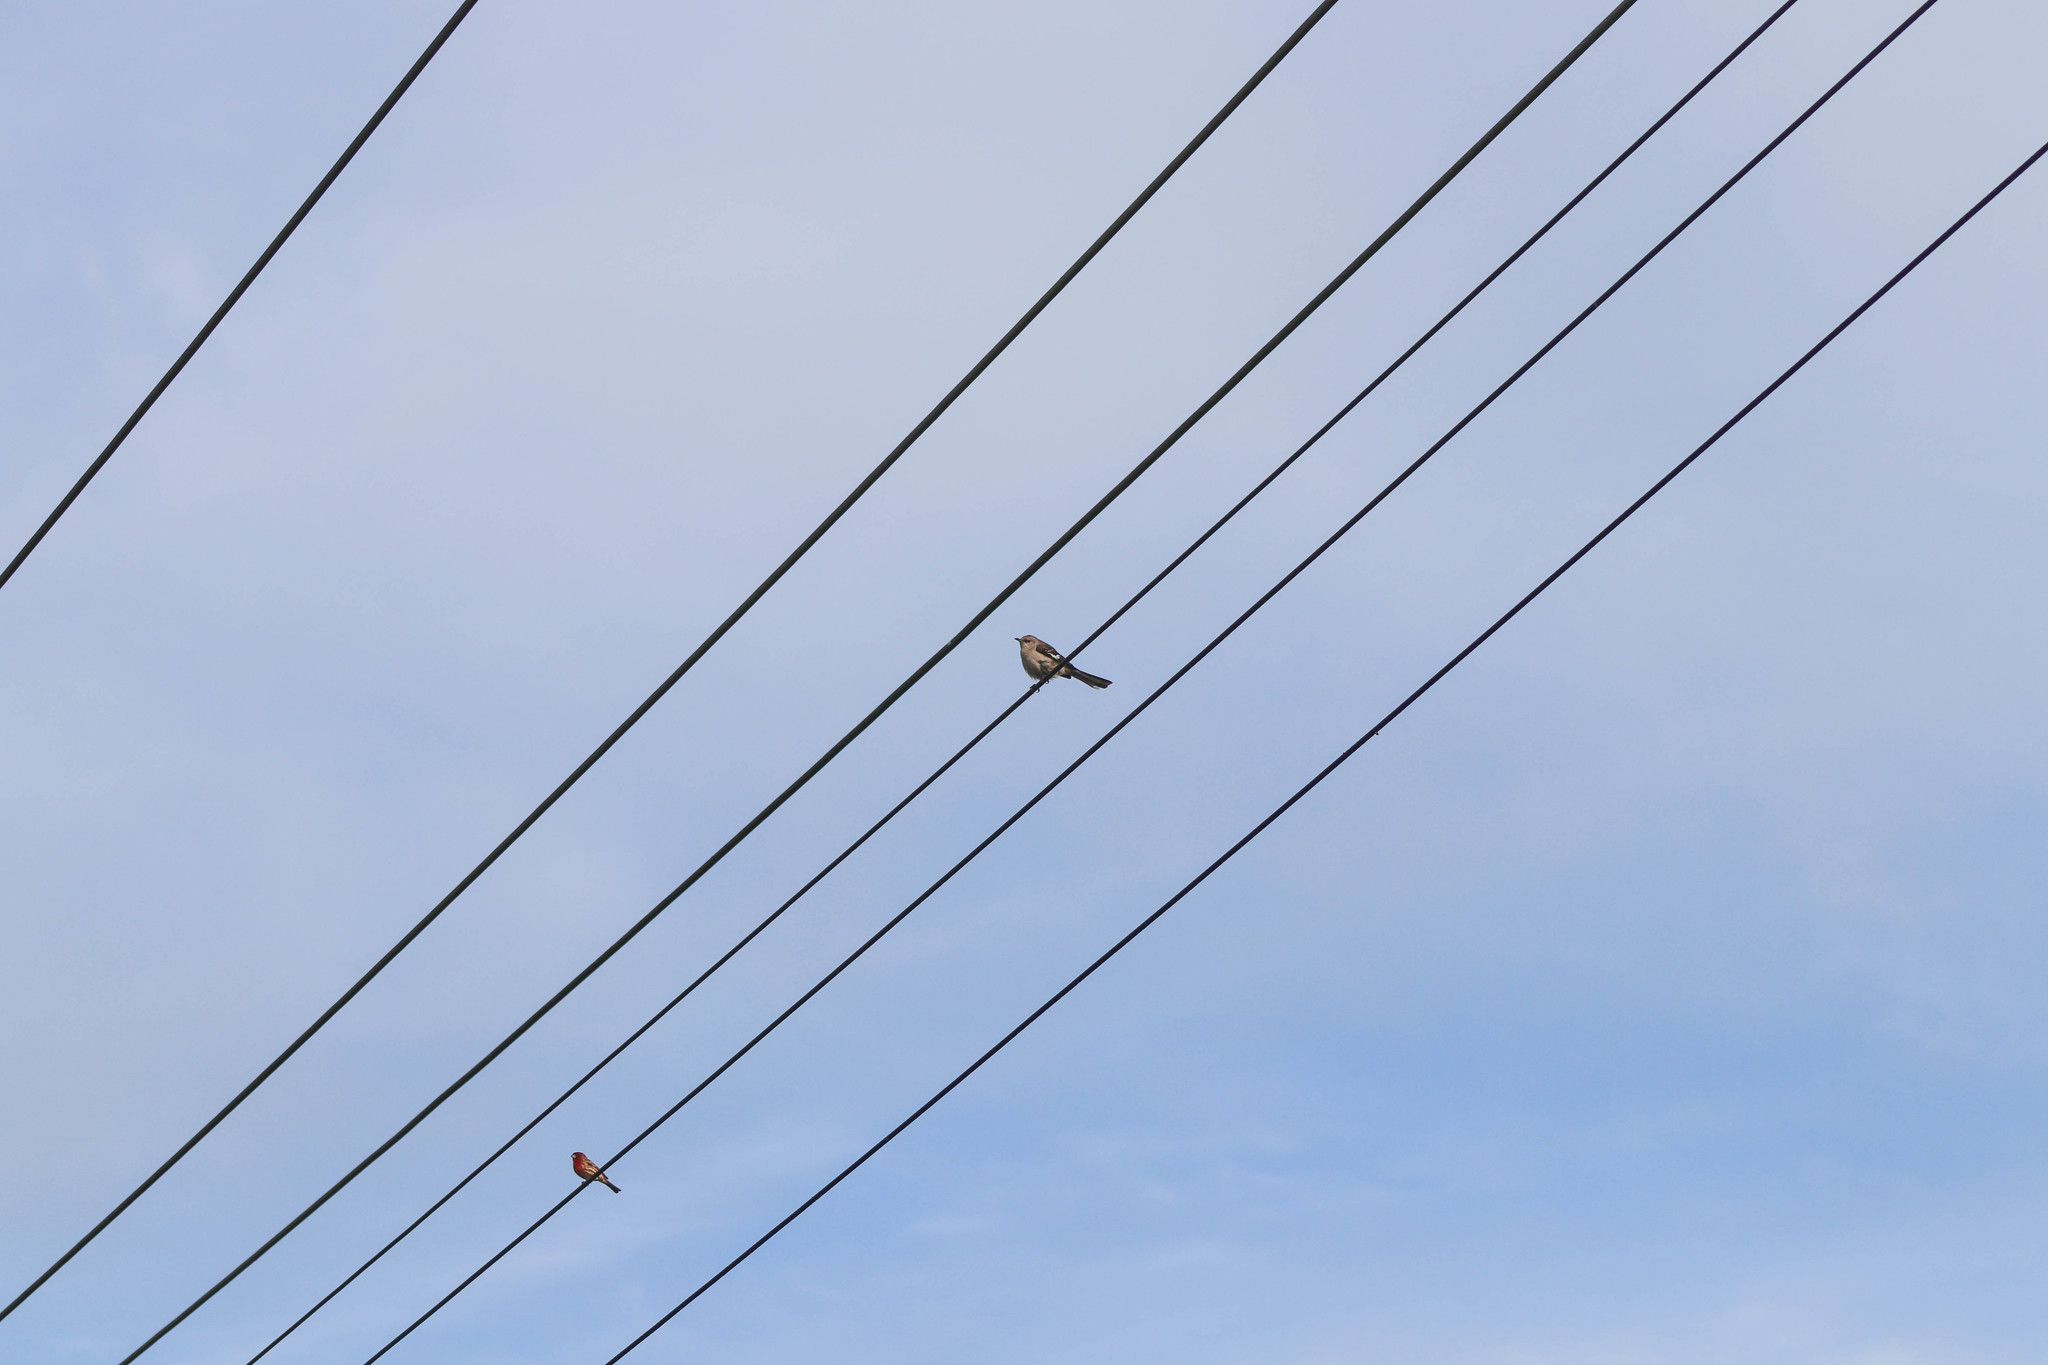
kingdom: Animalia
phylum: Chordata
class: Aves
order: Passeriformes
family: Mimidae
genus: Mimus
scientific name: Mimus polyglottos
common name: Northern mockingbird
